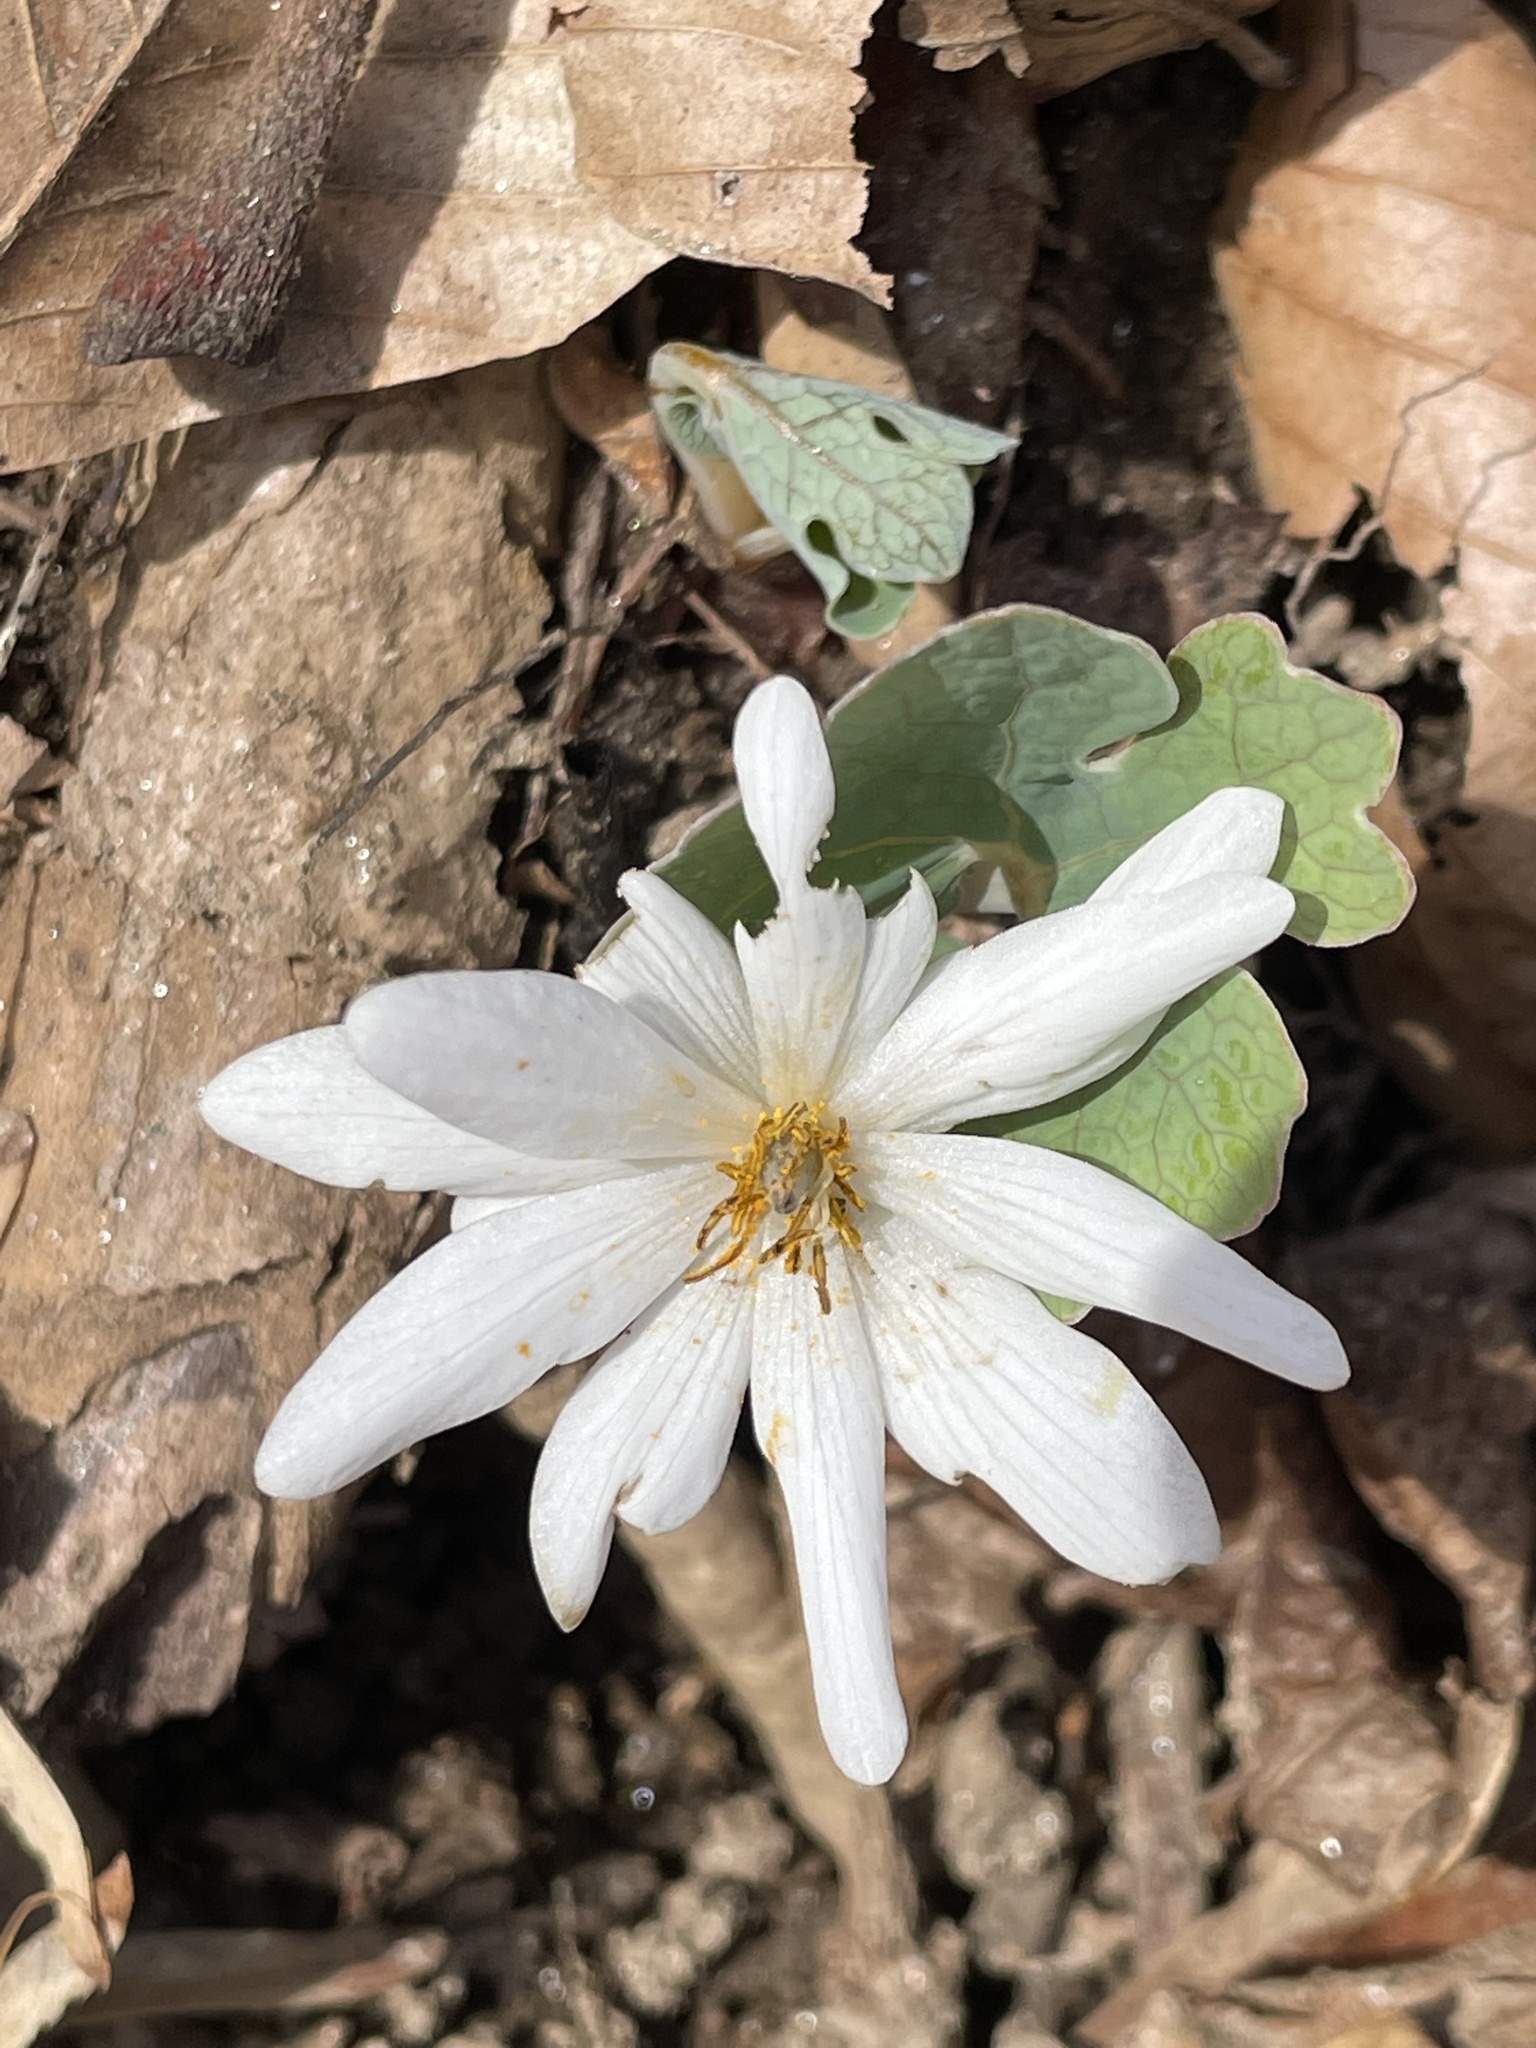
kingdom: Plantae
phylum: Tracheophyta
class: Magnoliopsida
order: Ranunculales
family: Papaveraceae
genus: Sanguinaria
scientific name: Sanguinaria canadensis
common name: Bloodroot
